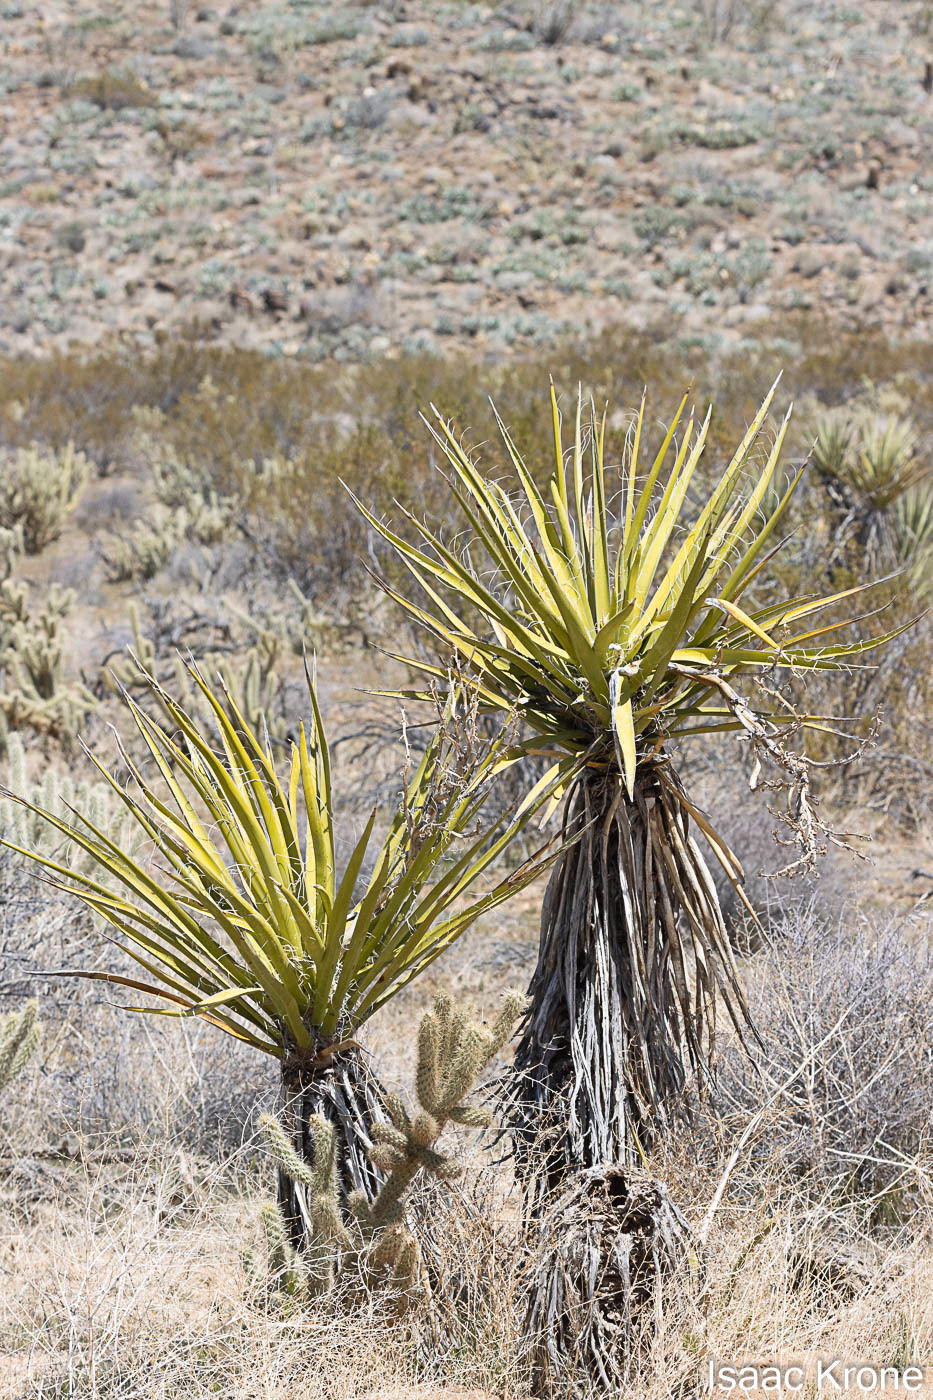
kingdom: Plantae
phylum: Tracheophyta
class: Liliopsida
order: Asparagales
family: Asparagaceae
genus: Yucca
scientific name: Yucca schidigera
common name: Mojave yucca
